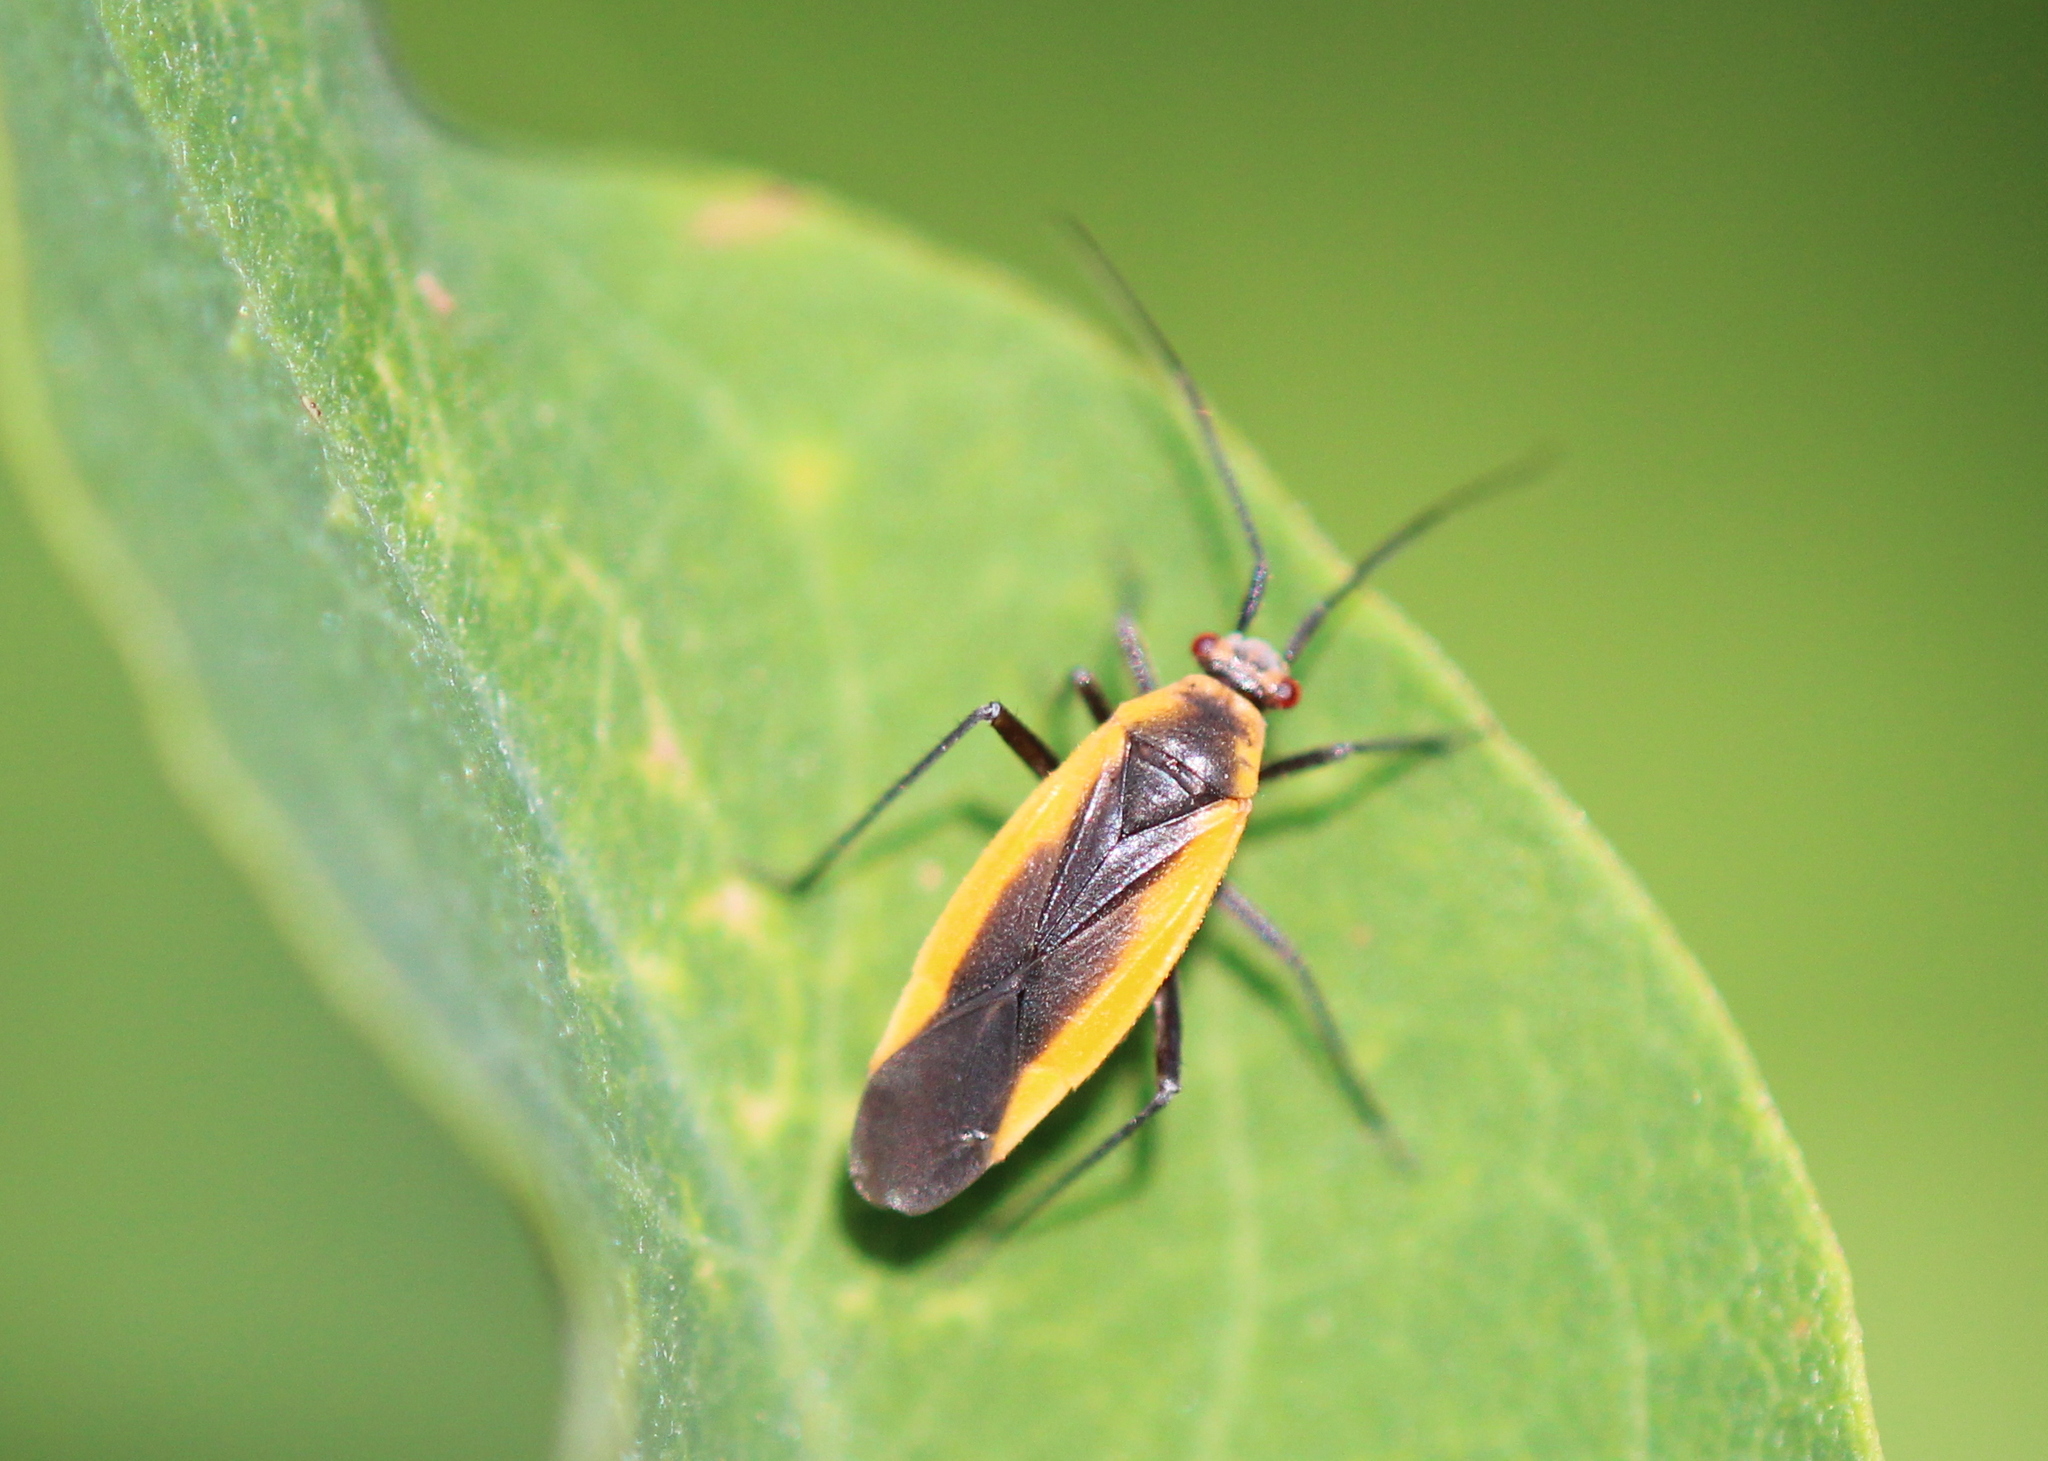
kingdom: Animalia
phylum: Arthropoda
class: Insecta
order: Hemiptera
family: Miridae
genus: Lopidea
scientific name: Lopidea robiniae
